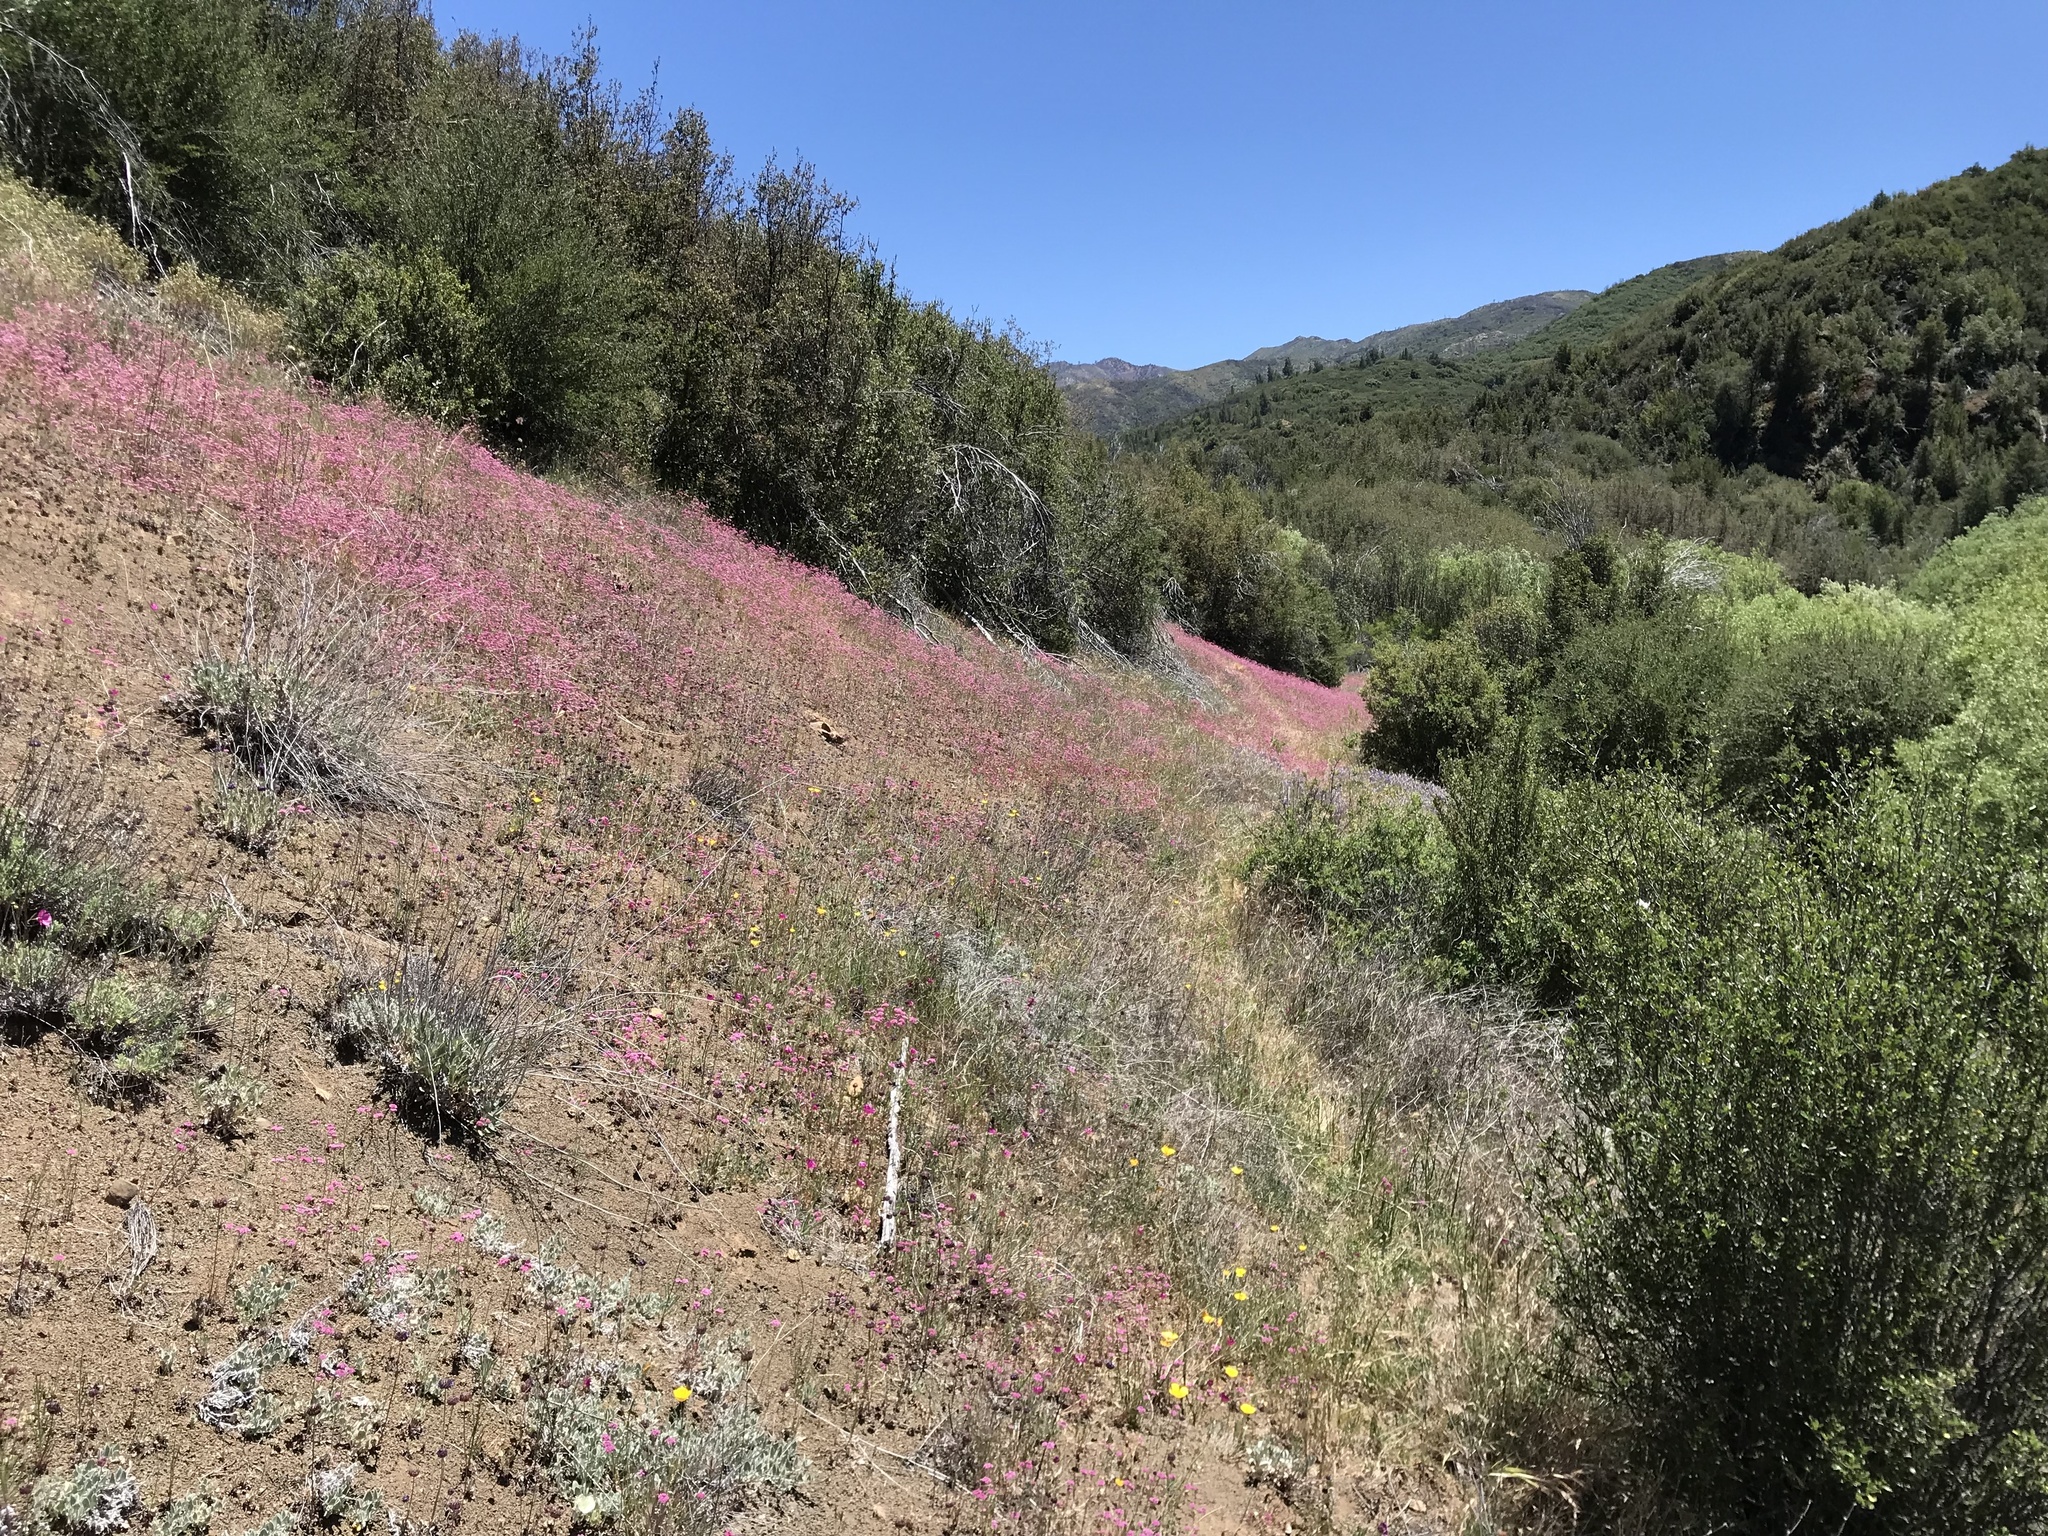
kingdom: Plantae
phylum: Tracheophyta
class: Magnoliopsida
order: Caryophyllales
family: Polygonaceae
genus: Chorizanthe
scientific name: Chorizanthe douglasii
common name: Douglas's spineflower
